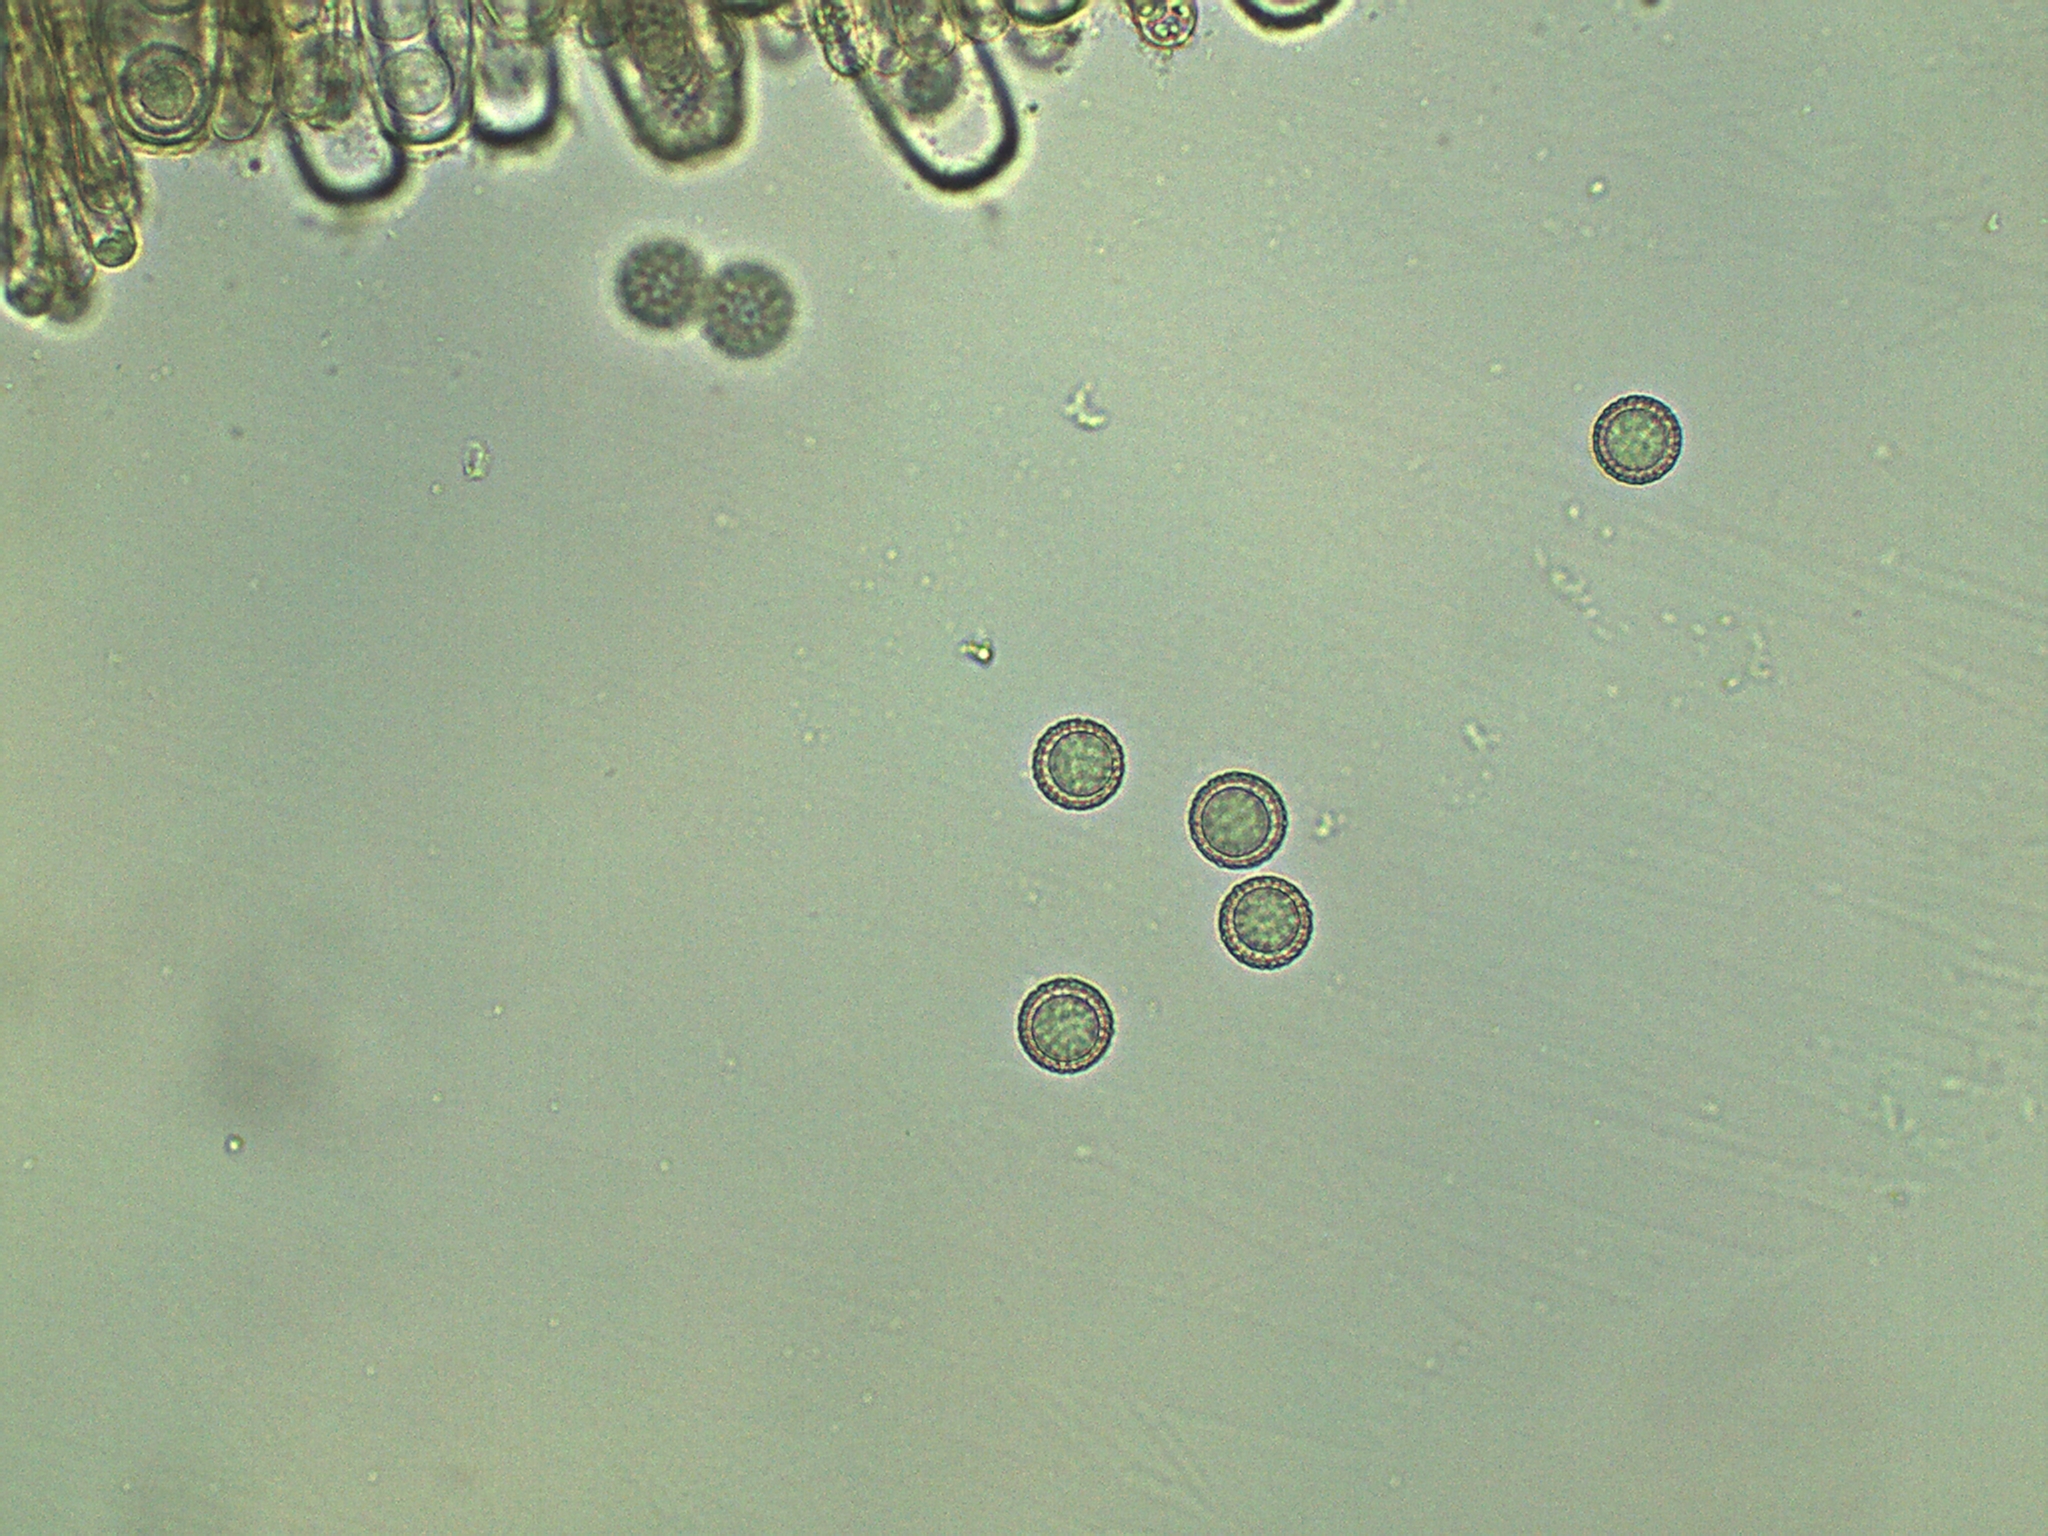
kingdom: Fungi
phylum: Ascomycota
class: Pezizomycetes
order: Pezizales
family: Pezizaceae
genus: Plicariella
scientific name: Plicariella scabrosa
